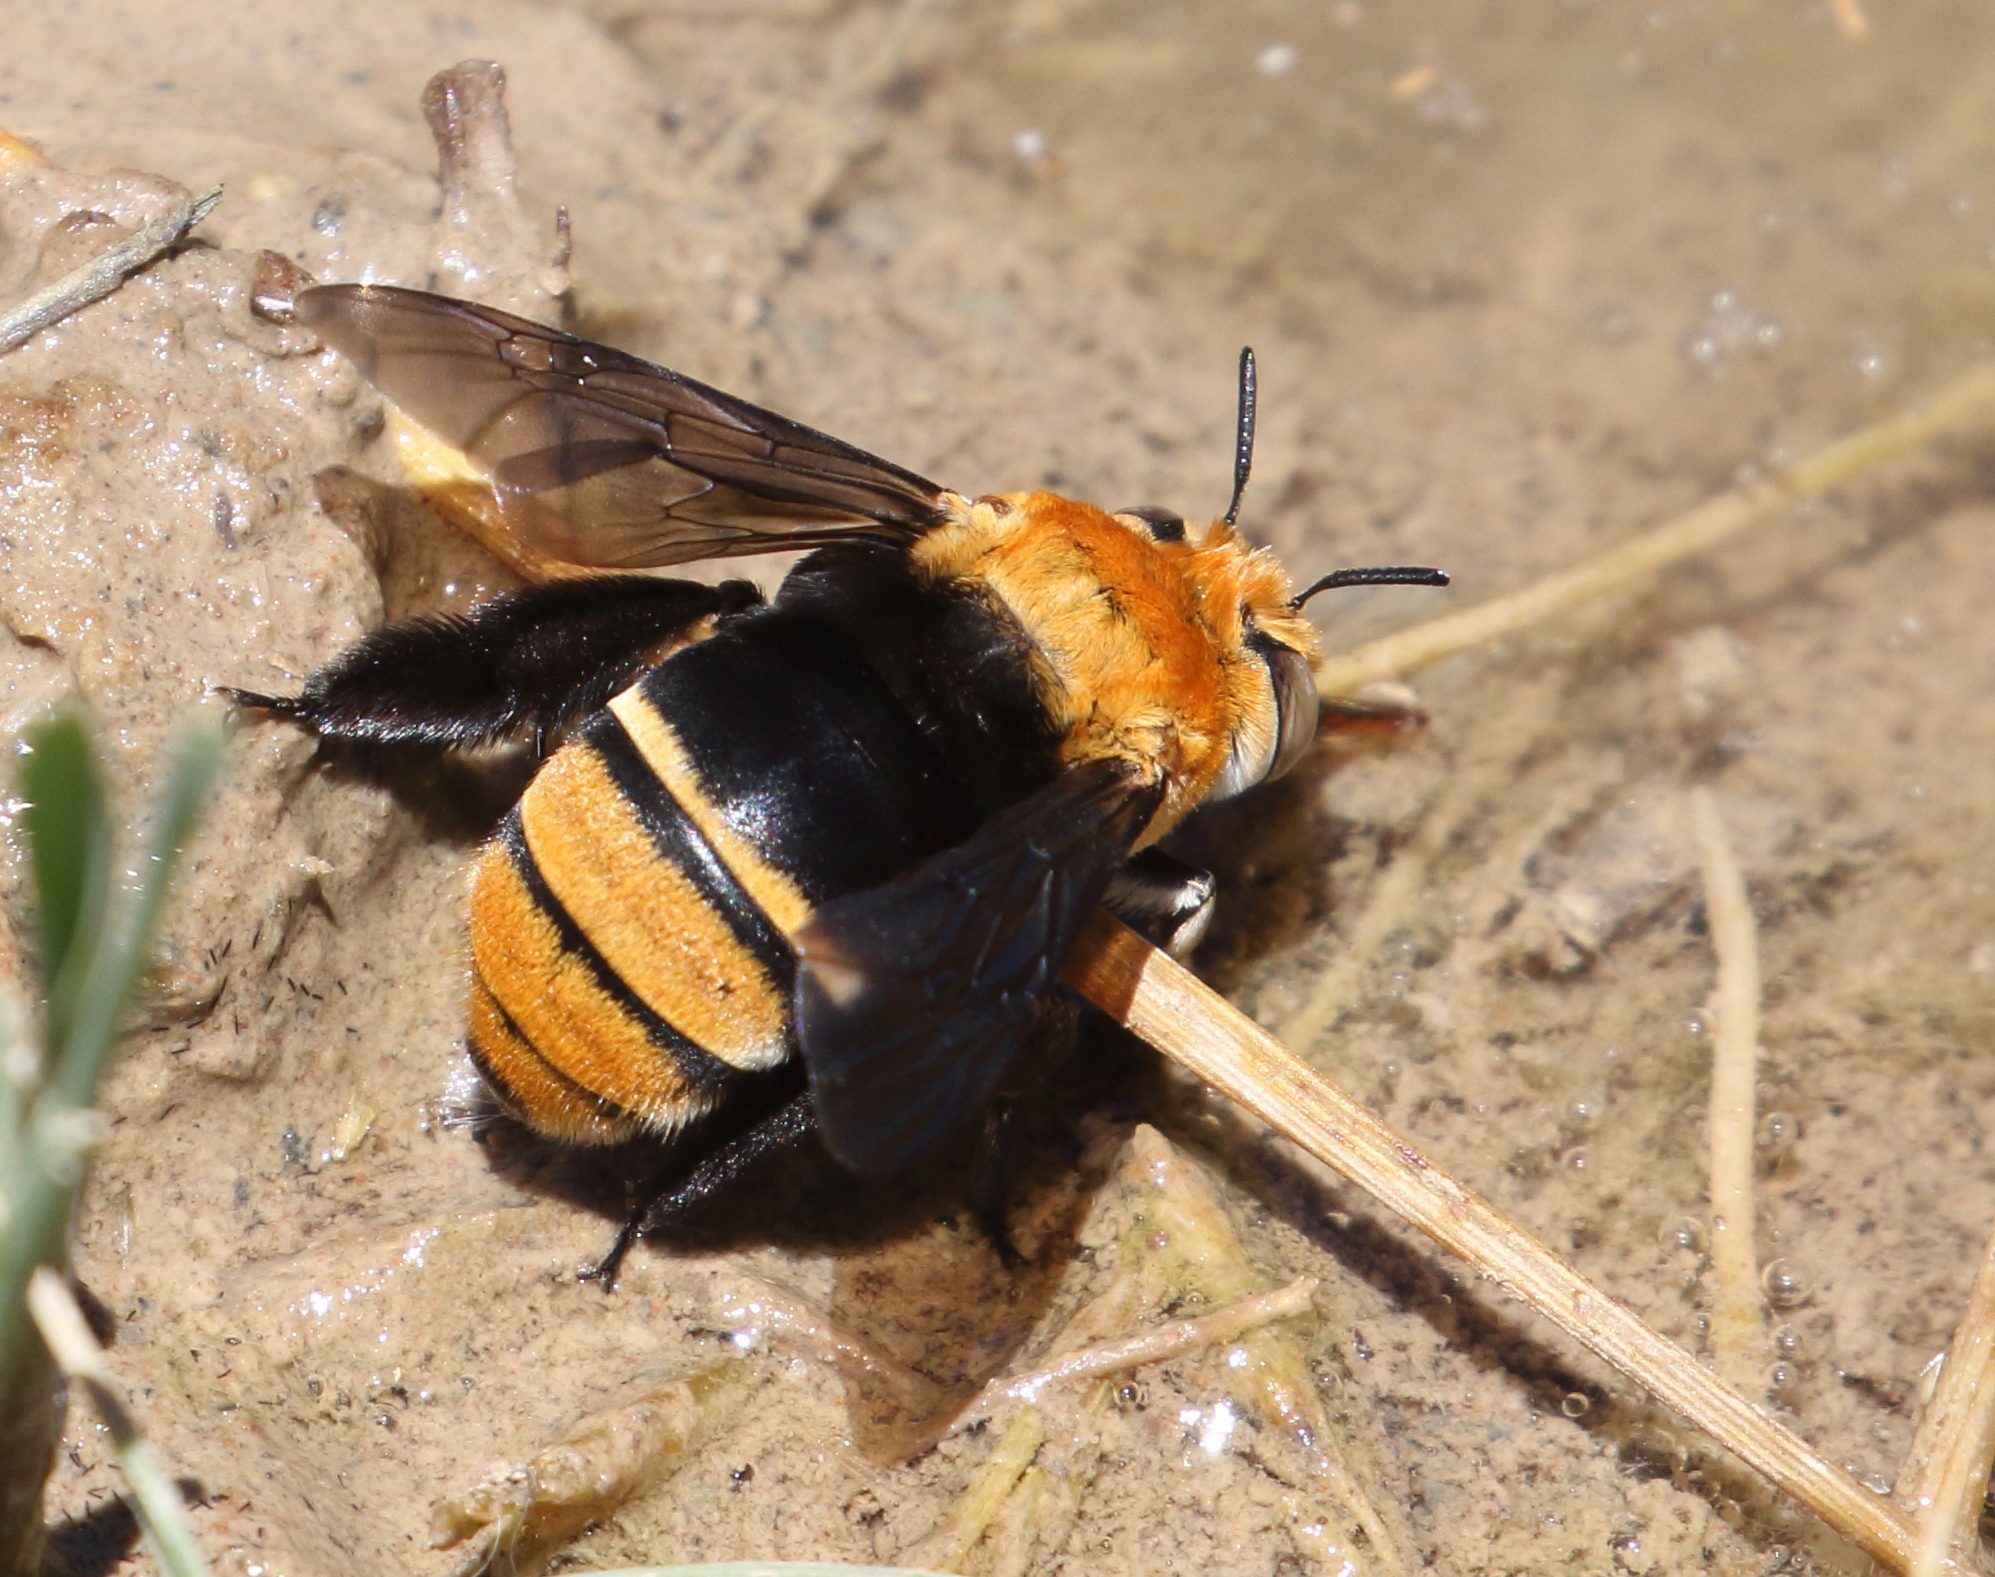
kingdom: Animalia
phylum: Arthropoda
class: Insecta
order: Hymenoptera
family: Apidae
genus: Amegilla
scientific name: Amegilla atrocincta
